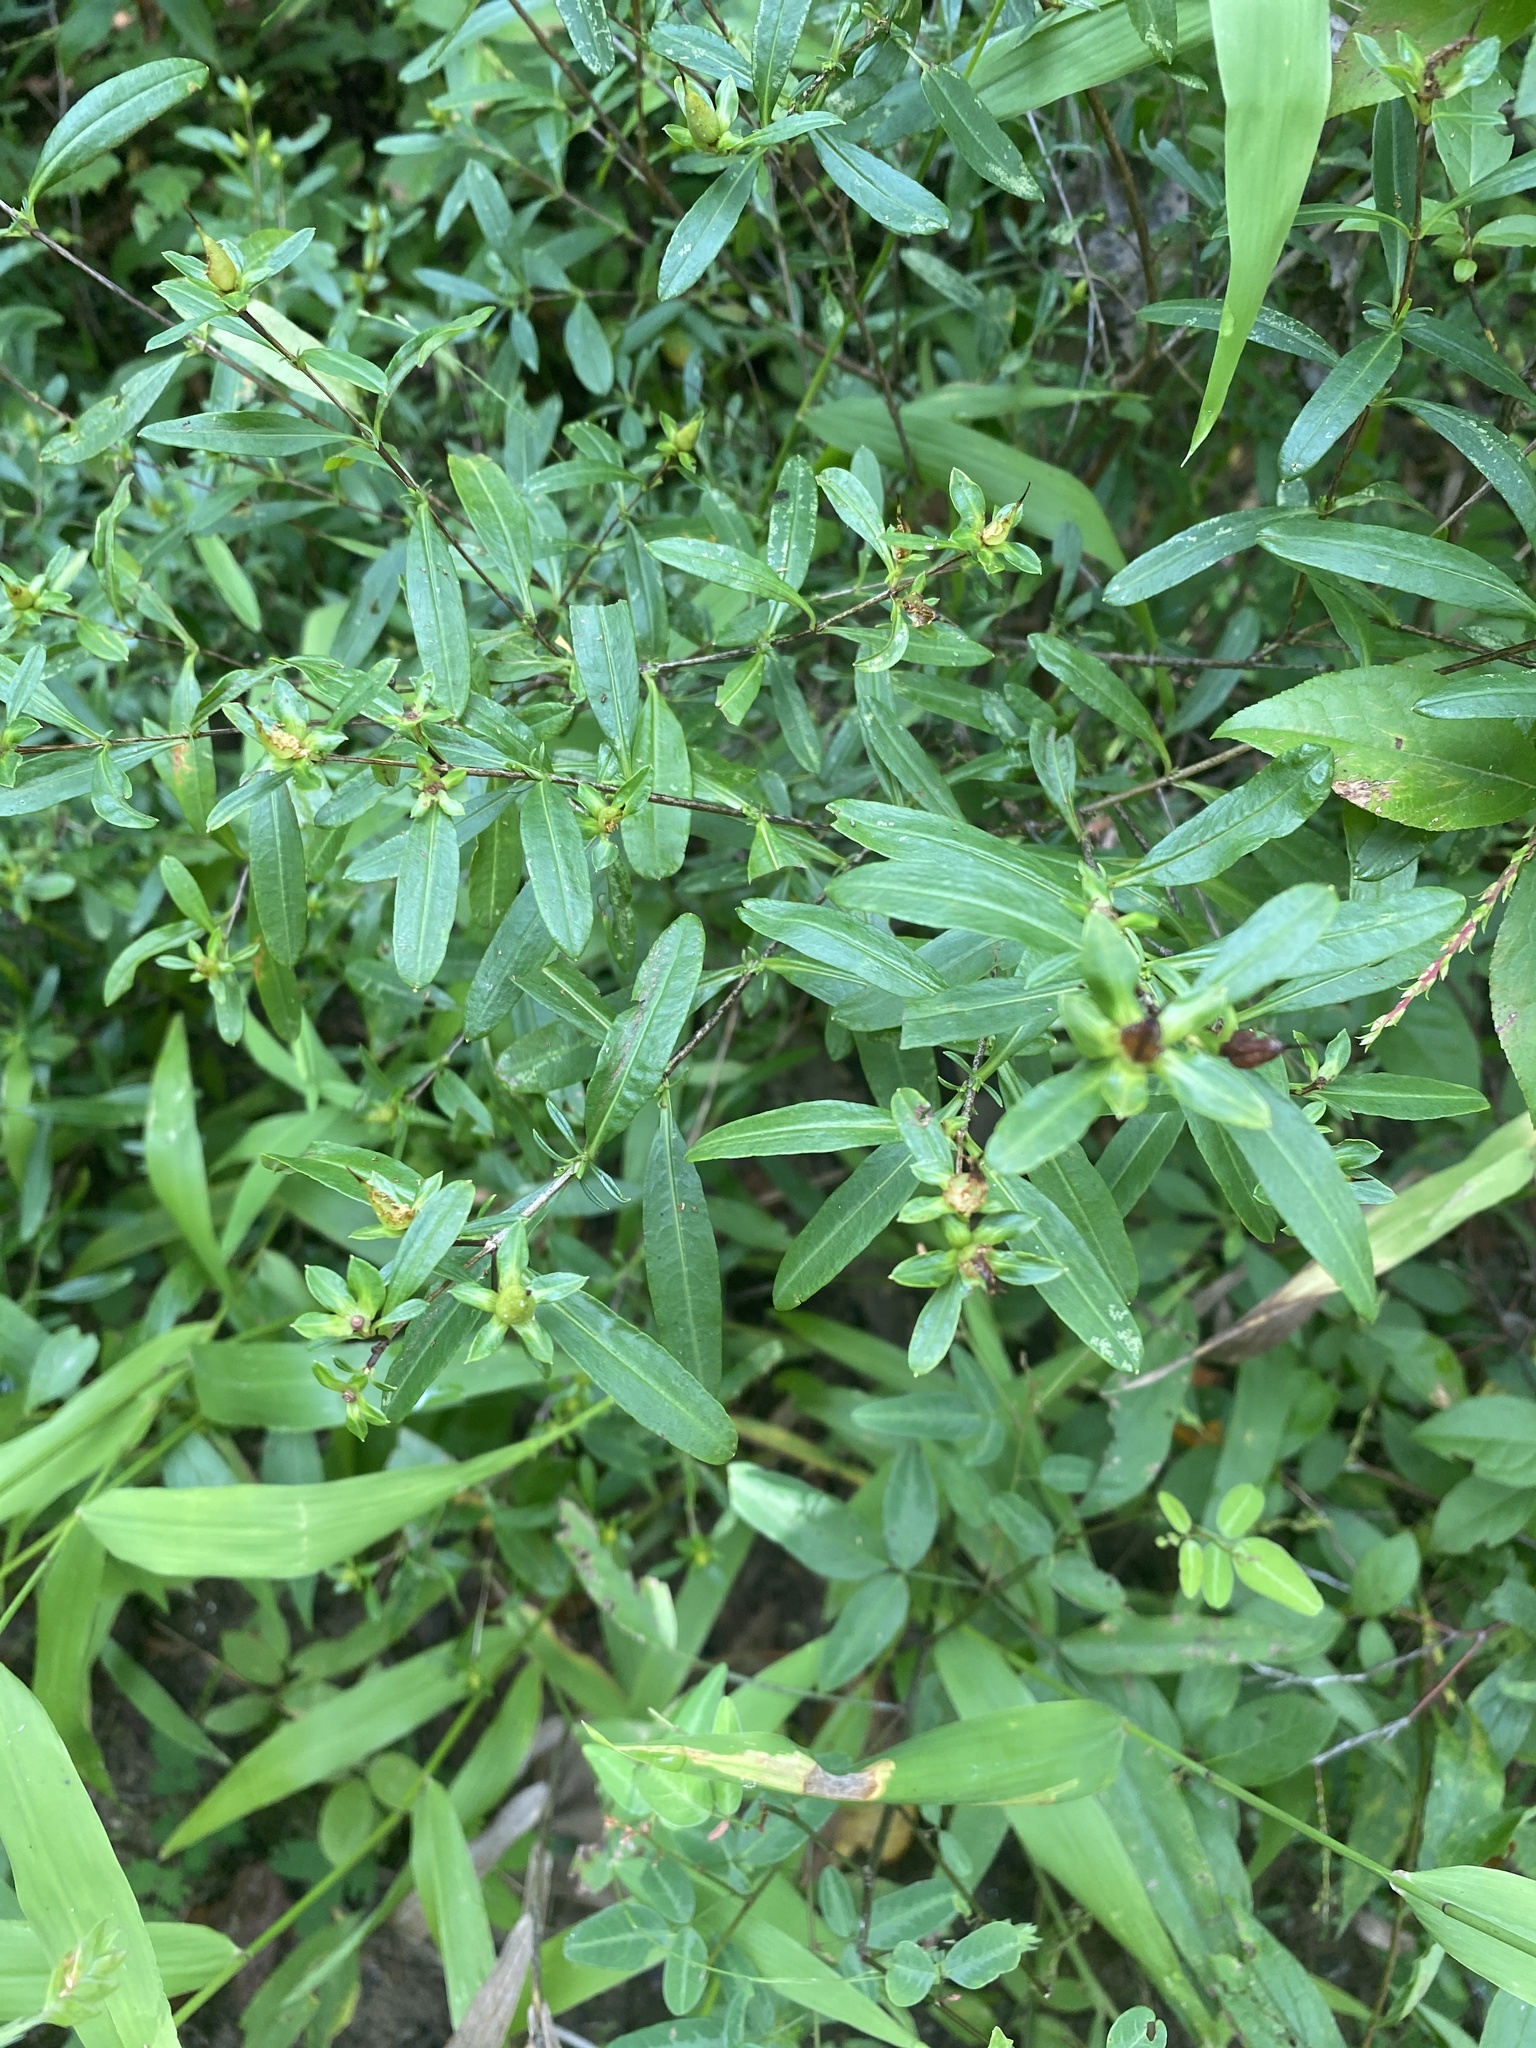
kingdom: Plantae
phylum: Tracheophyta
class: Magnoliopsida
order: Malpighiales
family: Hypericaceae
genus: Hypericum
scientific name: Hypericum prolificum
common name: Shrubby st. john's-wort
